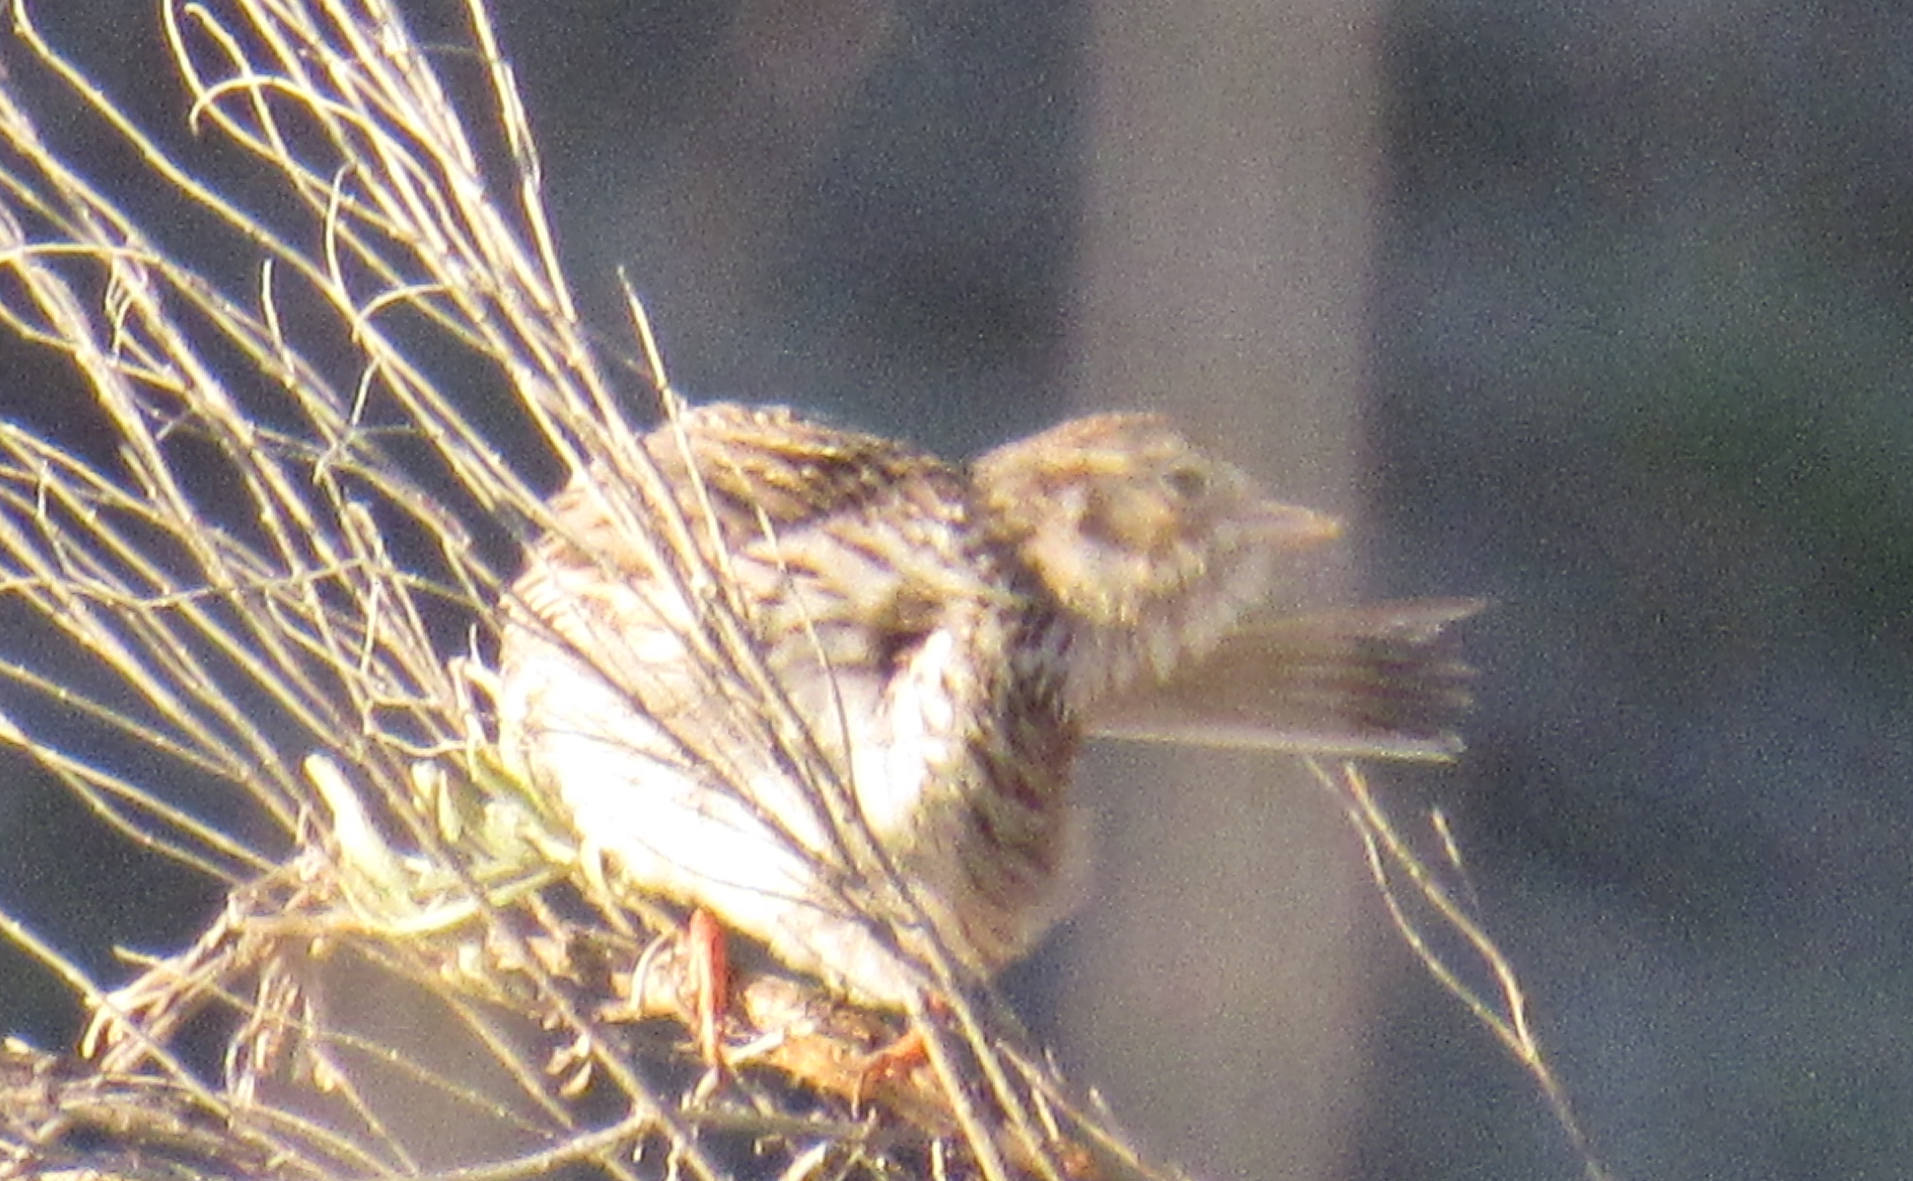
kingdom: Animalia
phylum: Chordata
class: Aves
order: Passeriformes
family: Passerellidae
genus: Pooecetes
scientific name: Pooecetes gramineus
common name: Vesper sparrow
